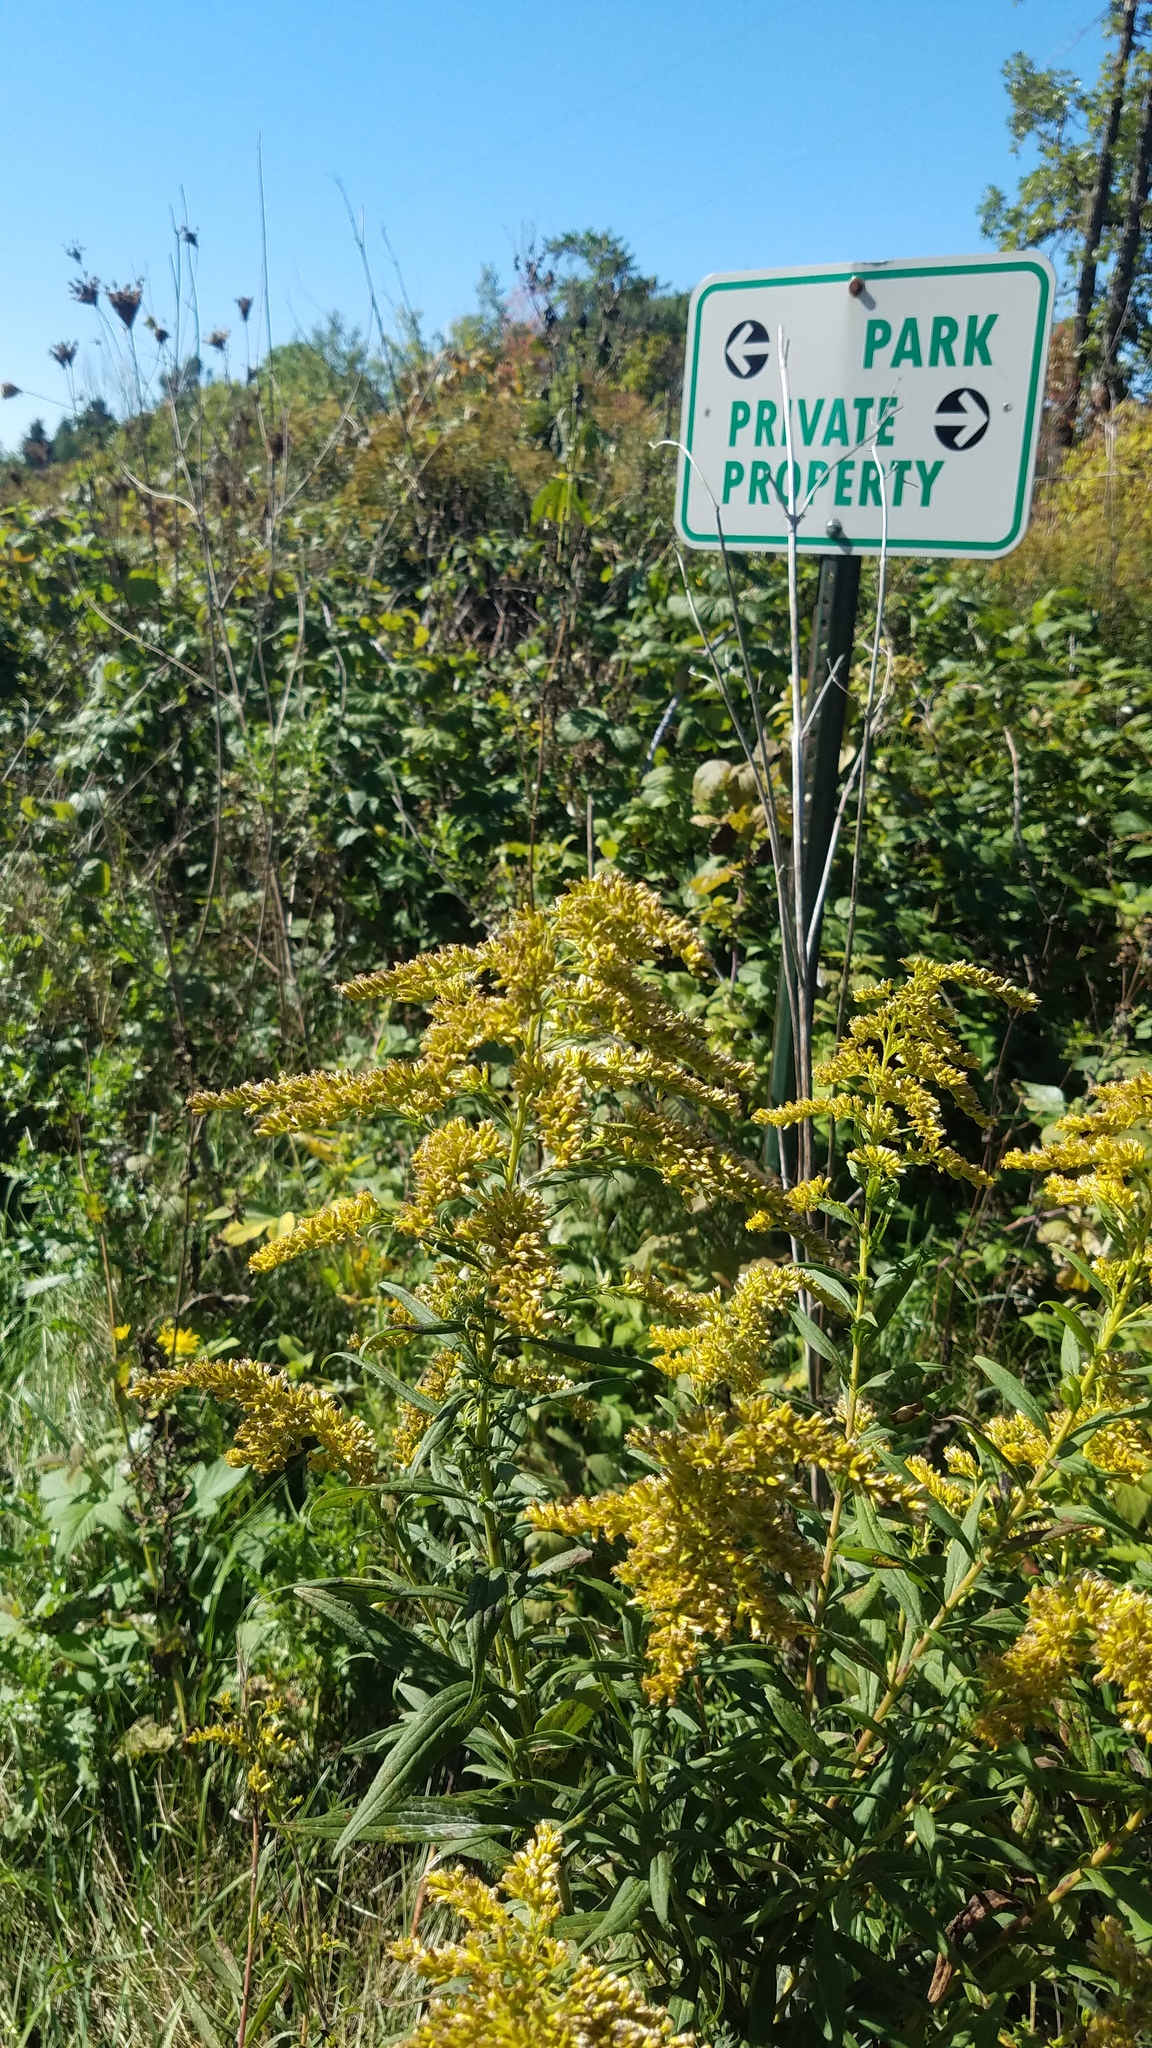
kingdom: Plantae
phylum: Tracheophyta
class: Magnoliopsida
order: Asterales
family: Asteraceae
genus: Solidago
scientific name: Solidago altissima
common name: Late goldenrod
